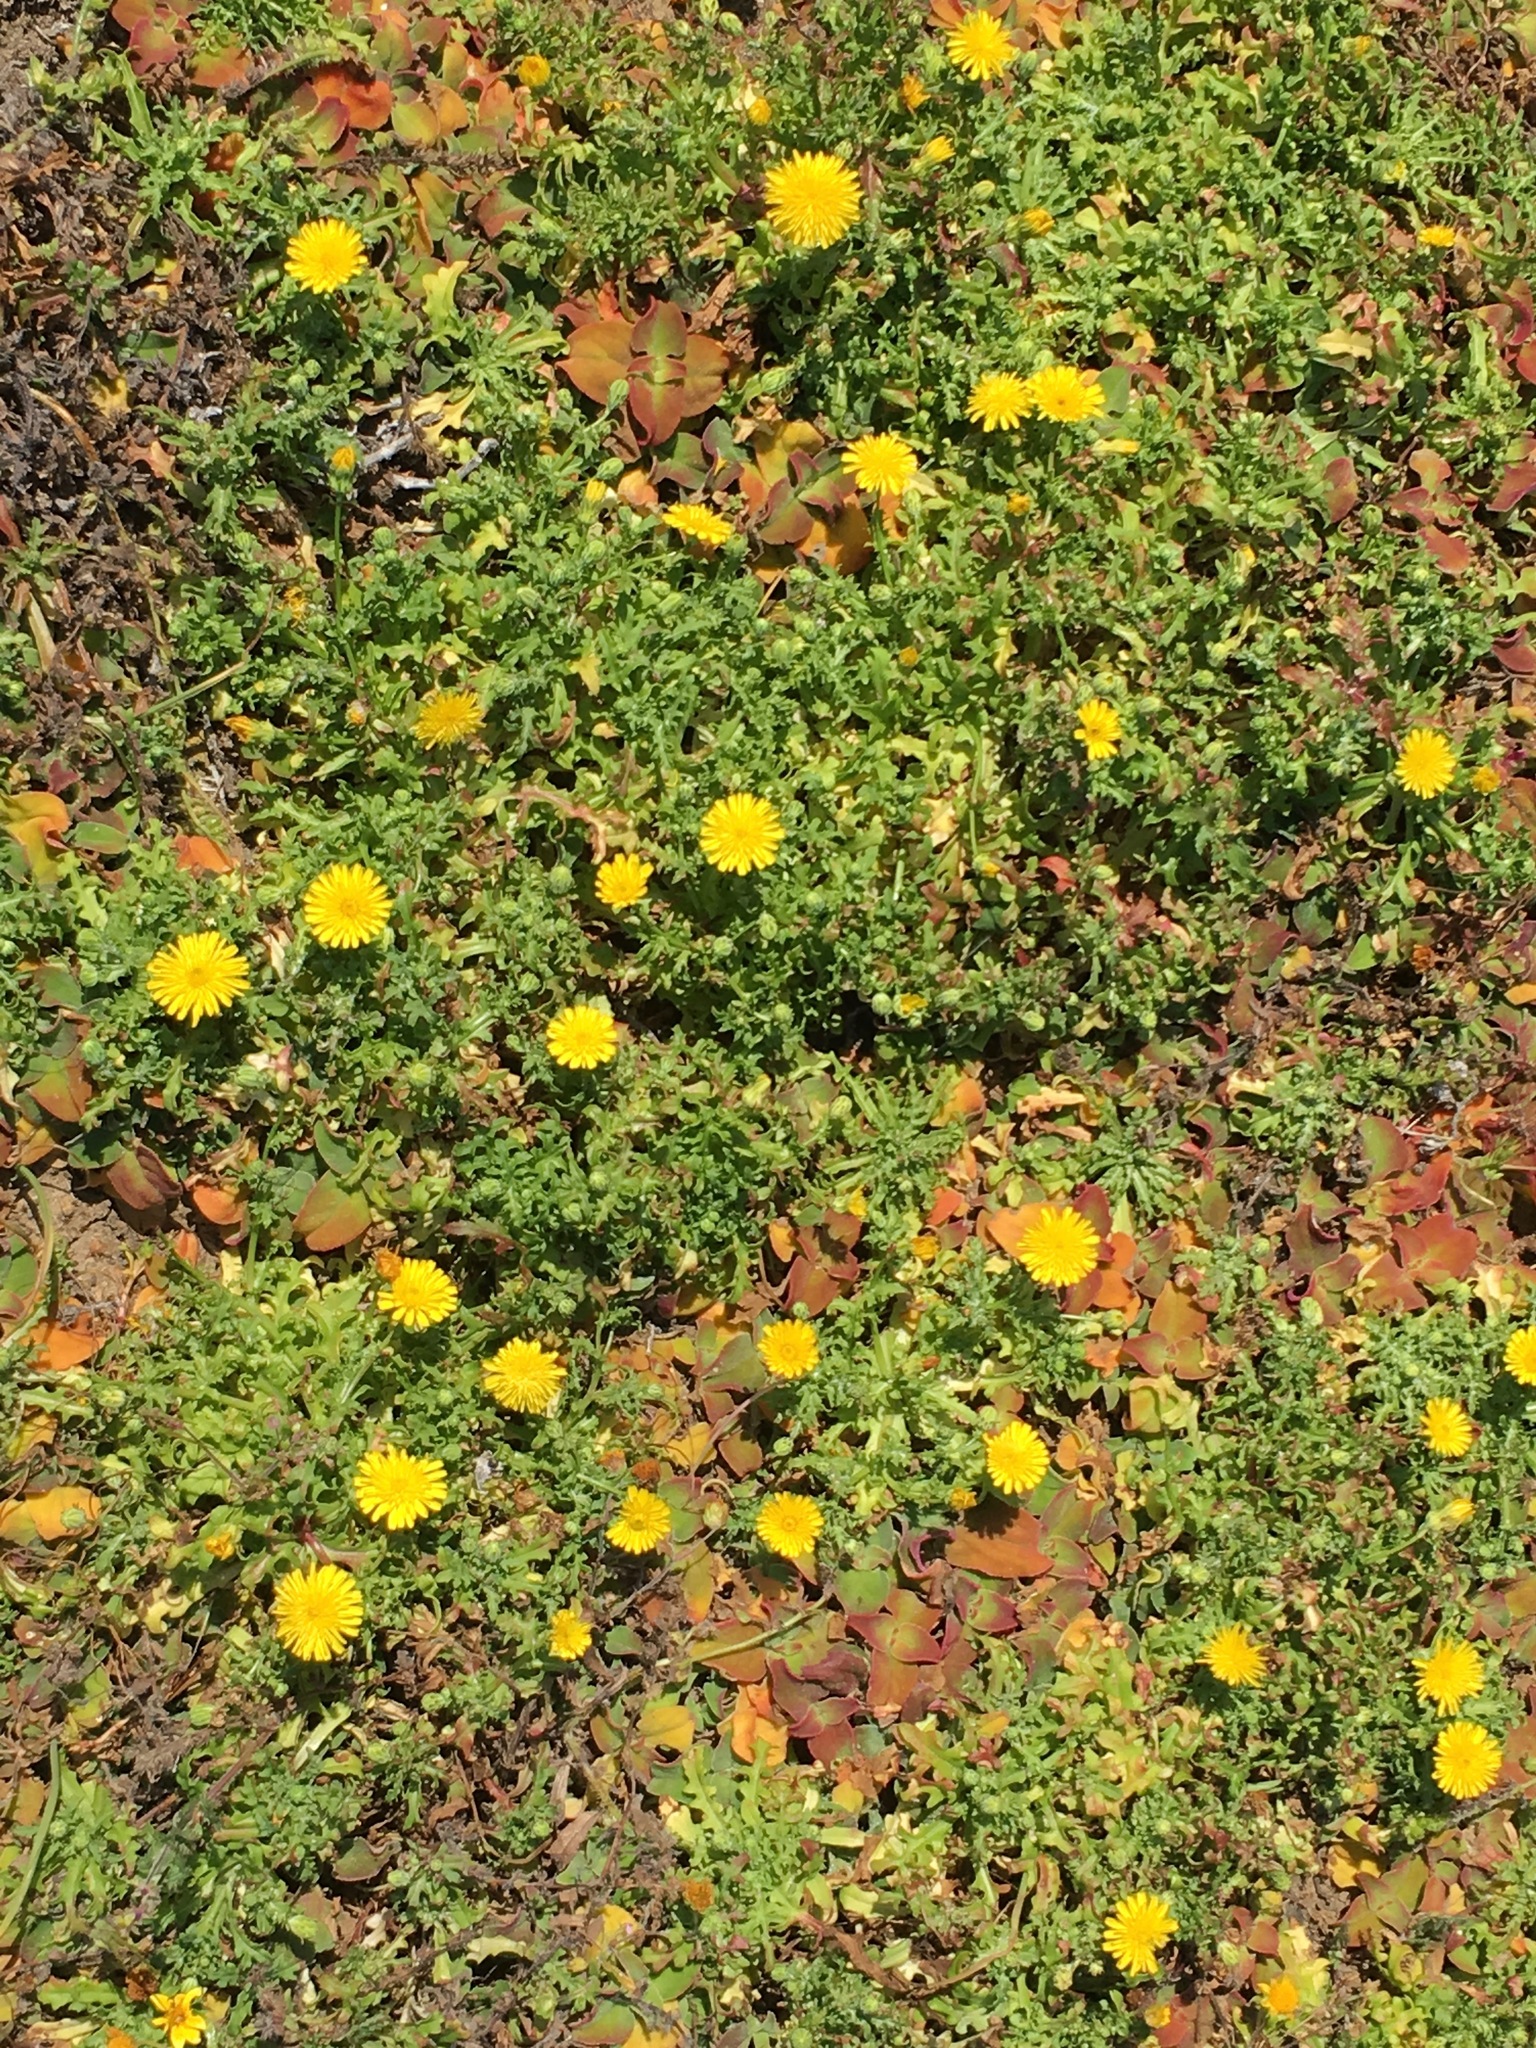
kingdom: Plantae
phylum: Tracheophyta
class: Magnoliopsida
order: Asterales
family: Asteraceae
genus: Malacothrix
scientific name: Malacothrix foliosa
